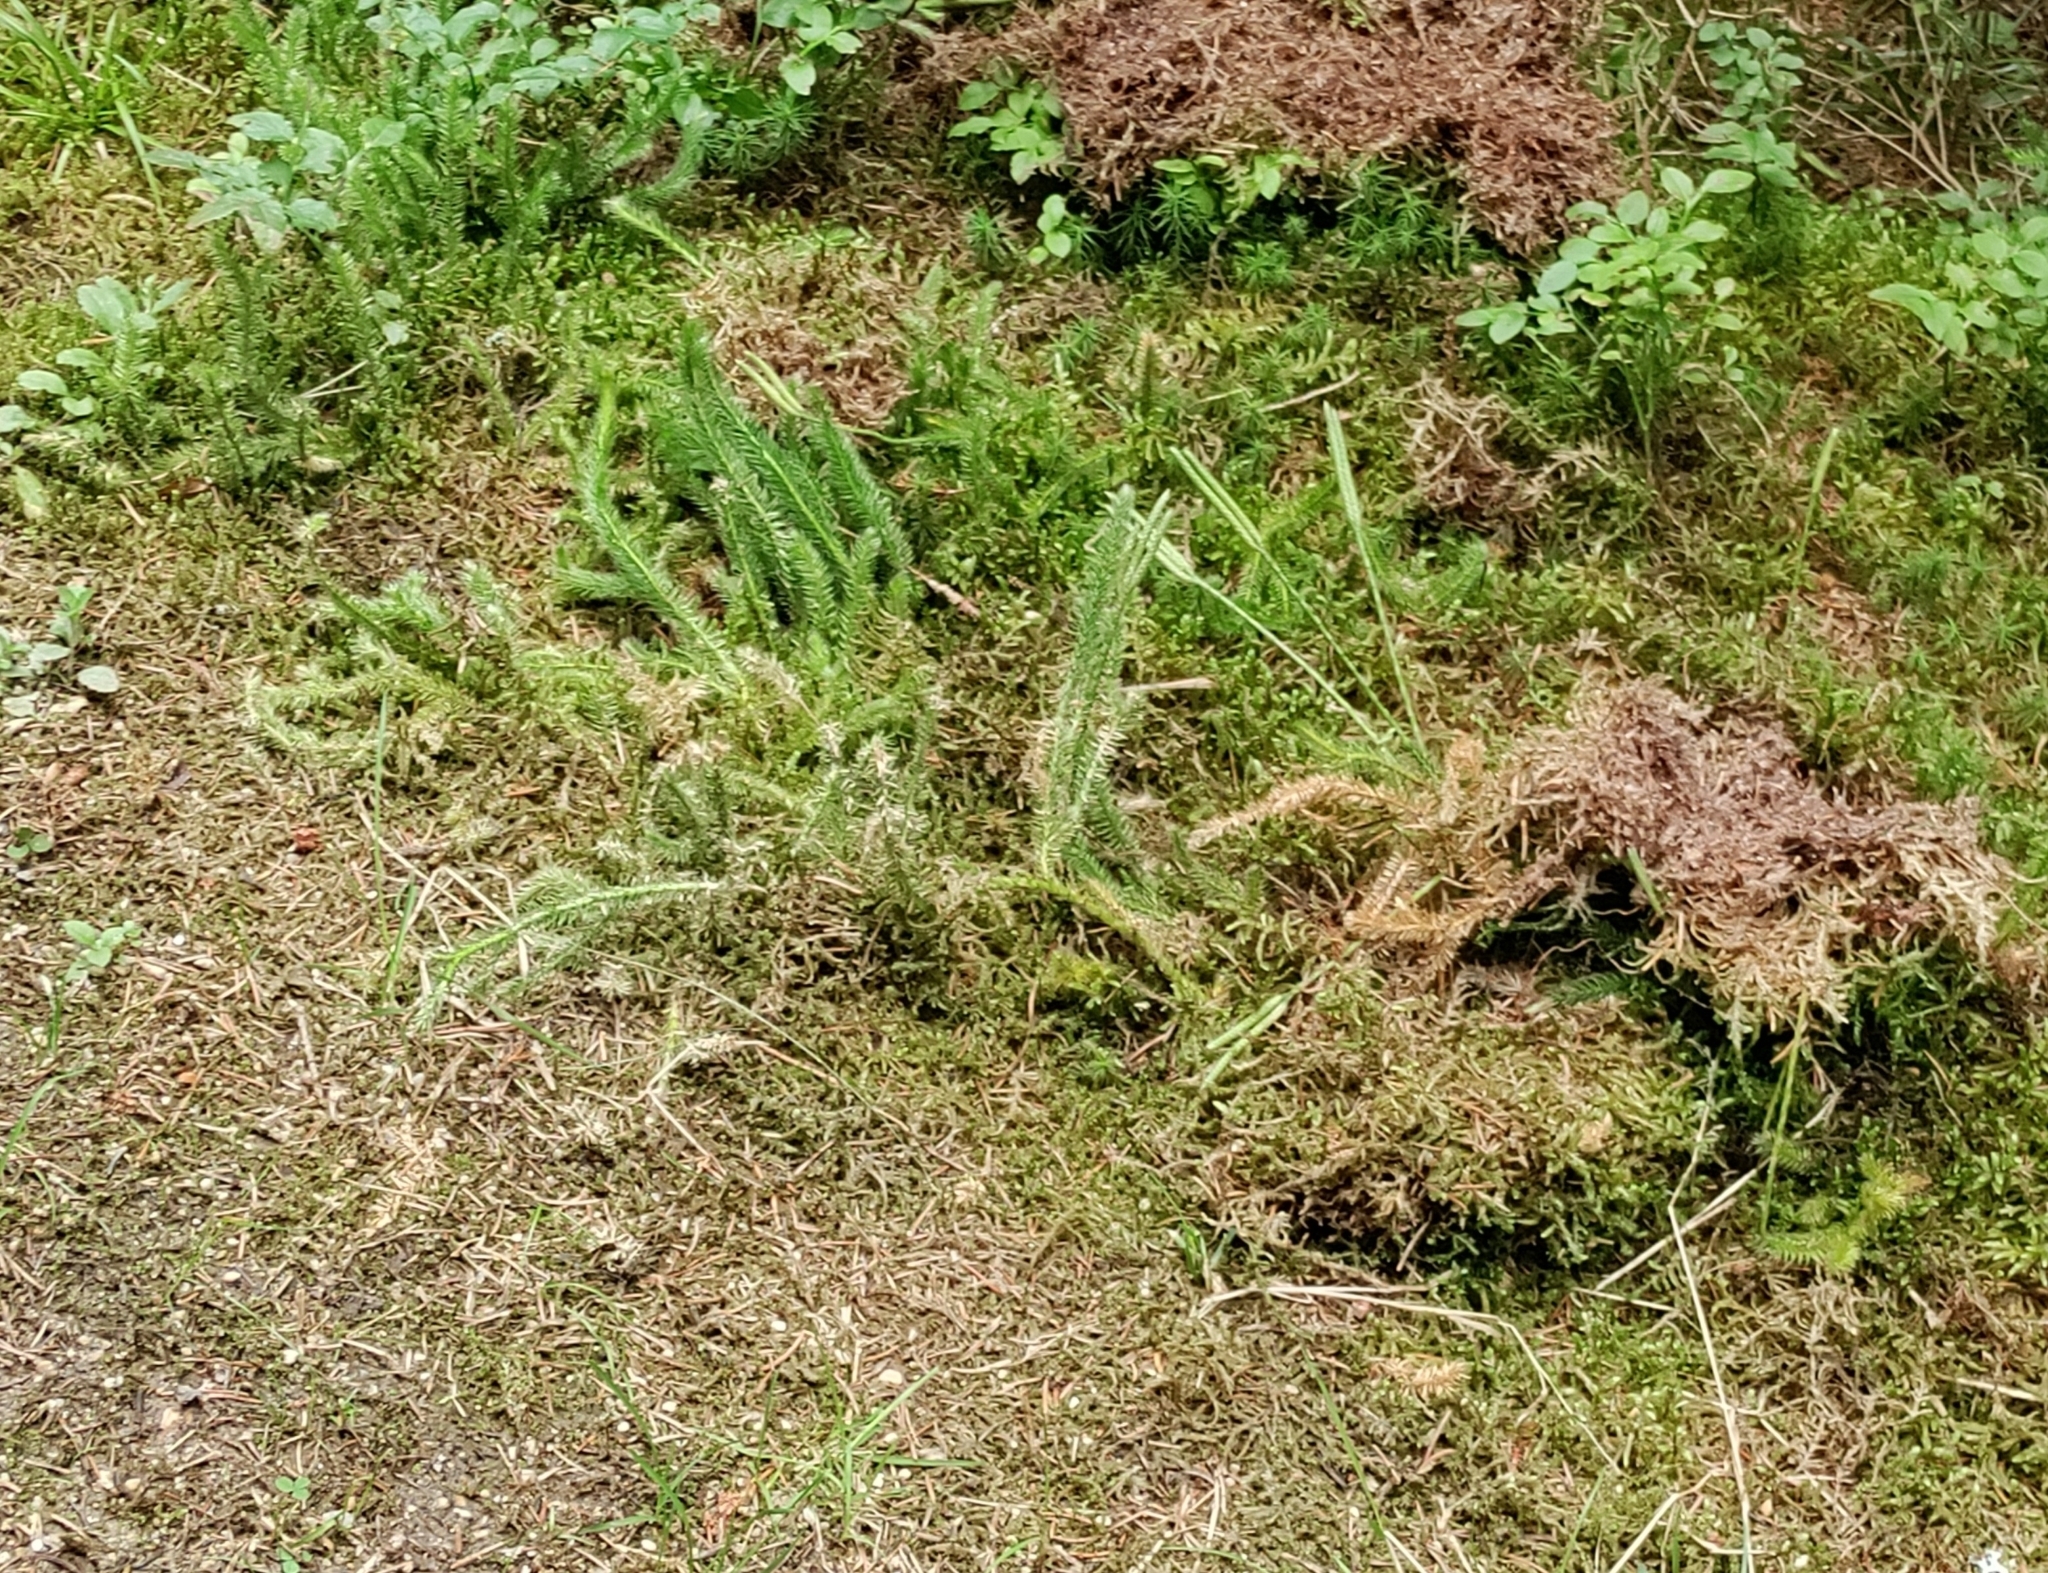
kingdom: Plantae
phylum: Tracheophyta
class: Lycopodiopsida
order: Lycopodiales
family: Lycopodiaceae
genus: Lycopodium
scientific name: Lycopodium clavatum
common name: Stag's-horn clubmoss
